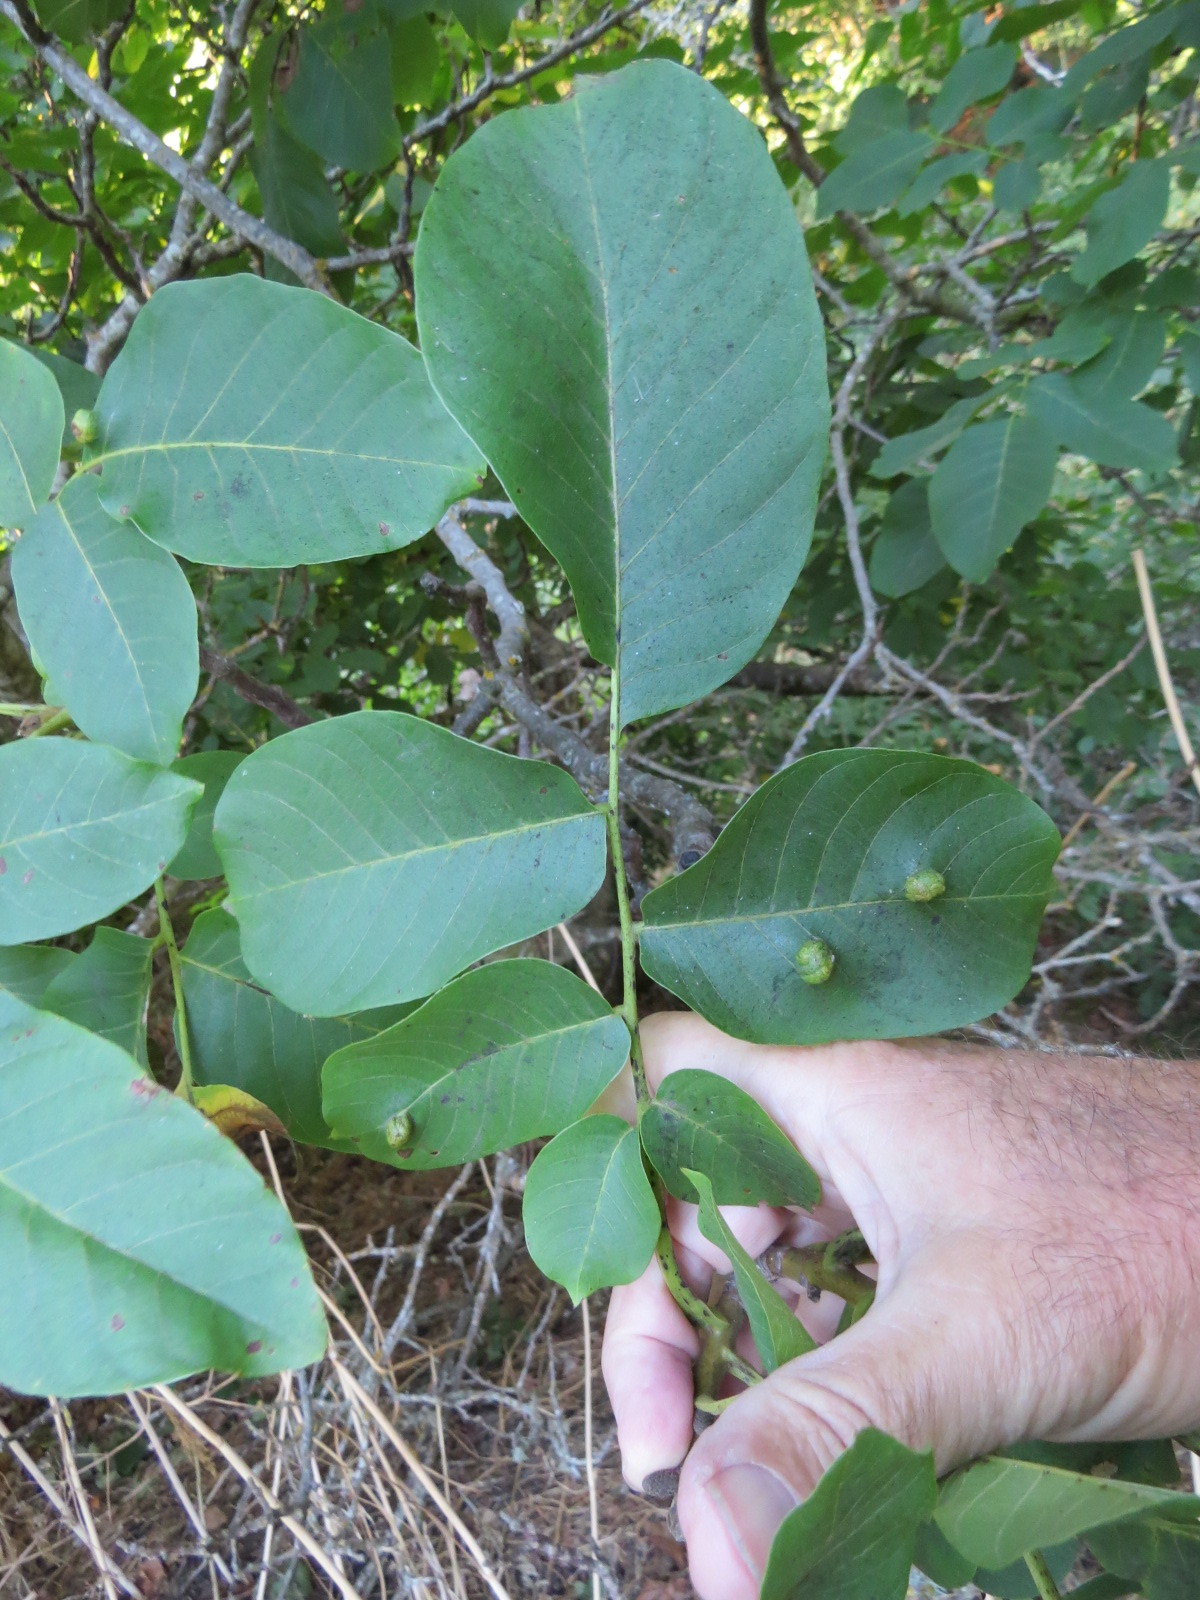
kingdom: Animalia
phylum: Arthropoda
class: Arachnida
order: Trombidiformes
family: Eriophyidae
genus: Aceria
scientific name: Aceria erinea
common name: Persian walnut erineum mite
